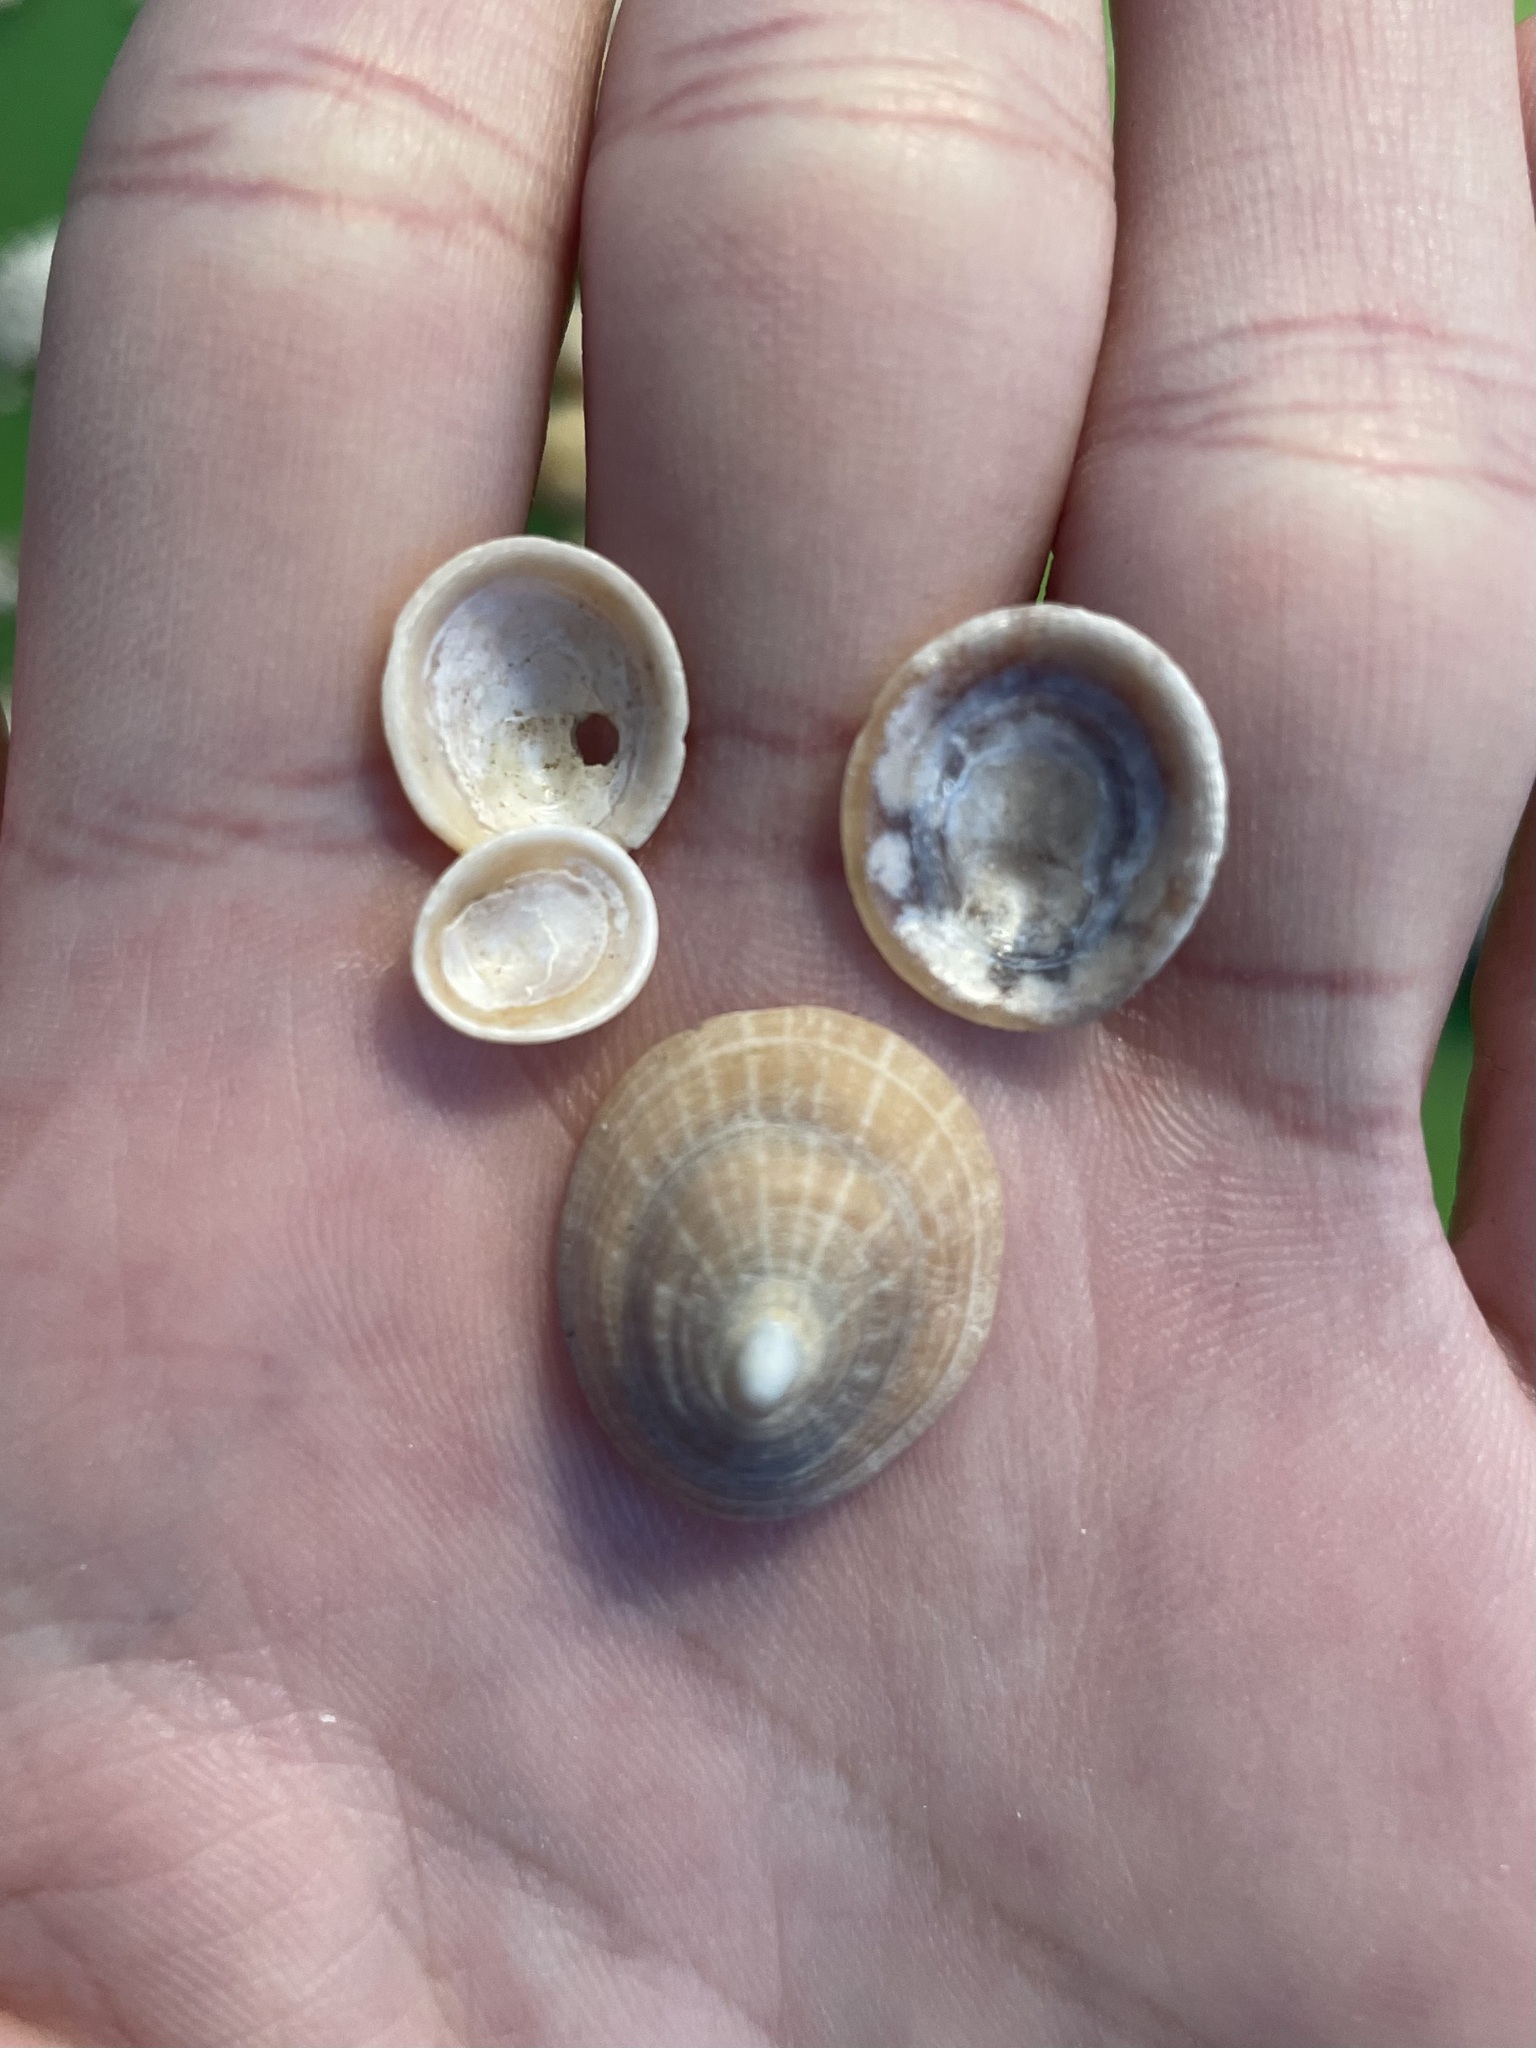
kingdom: Animalia
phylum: Mollusca
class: Gastropoda
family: Patellidae
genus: Patella
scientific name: Patella pellucida
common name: Blue-rayed limpet
